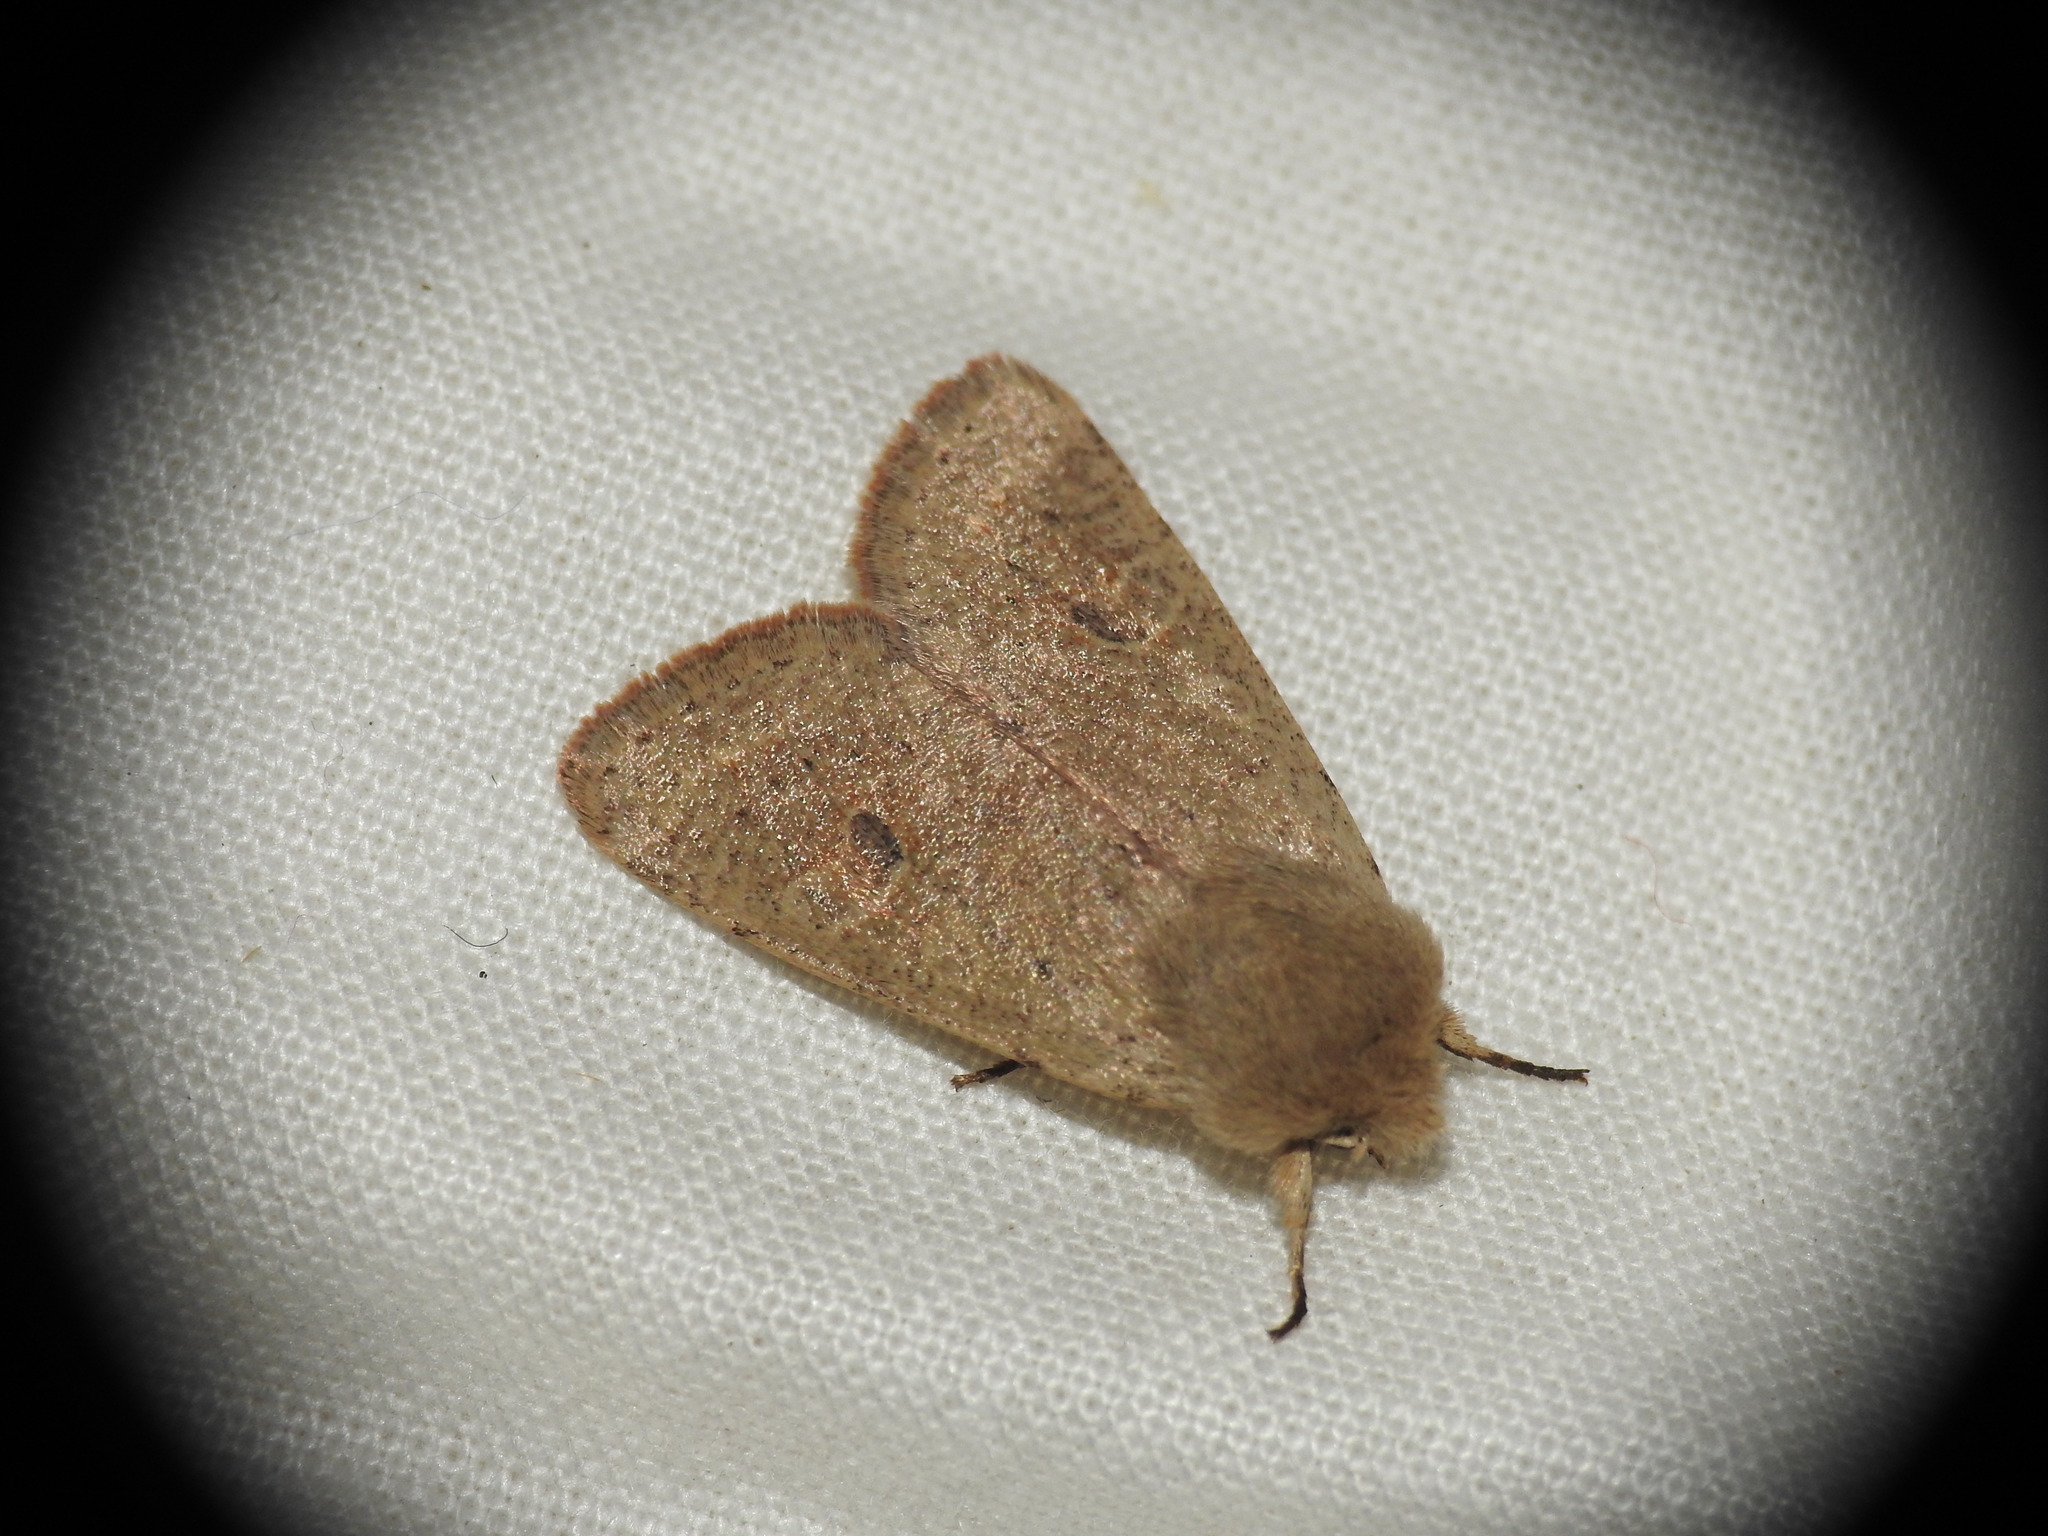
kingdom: Animalia
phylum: Arthropoda
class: Insecta
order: Lepidoptera
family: Noctuidae
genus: Orthosia
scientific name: Orthosia cruda
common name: Small quaker
